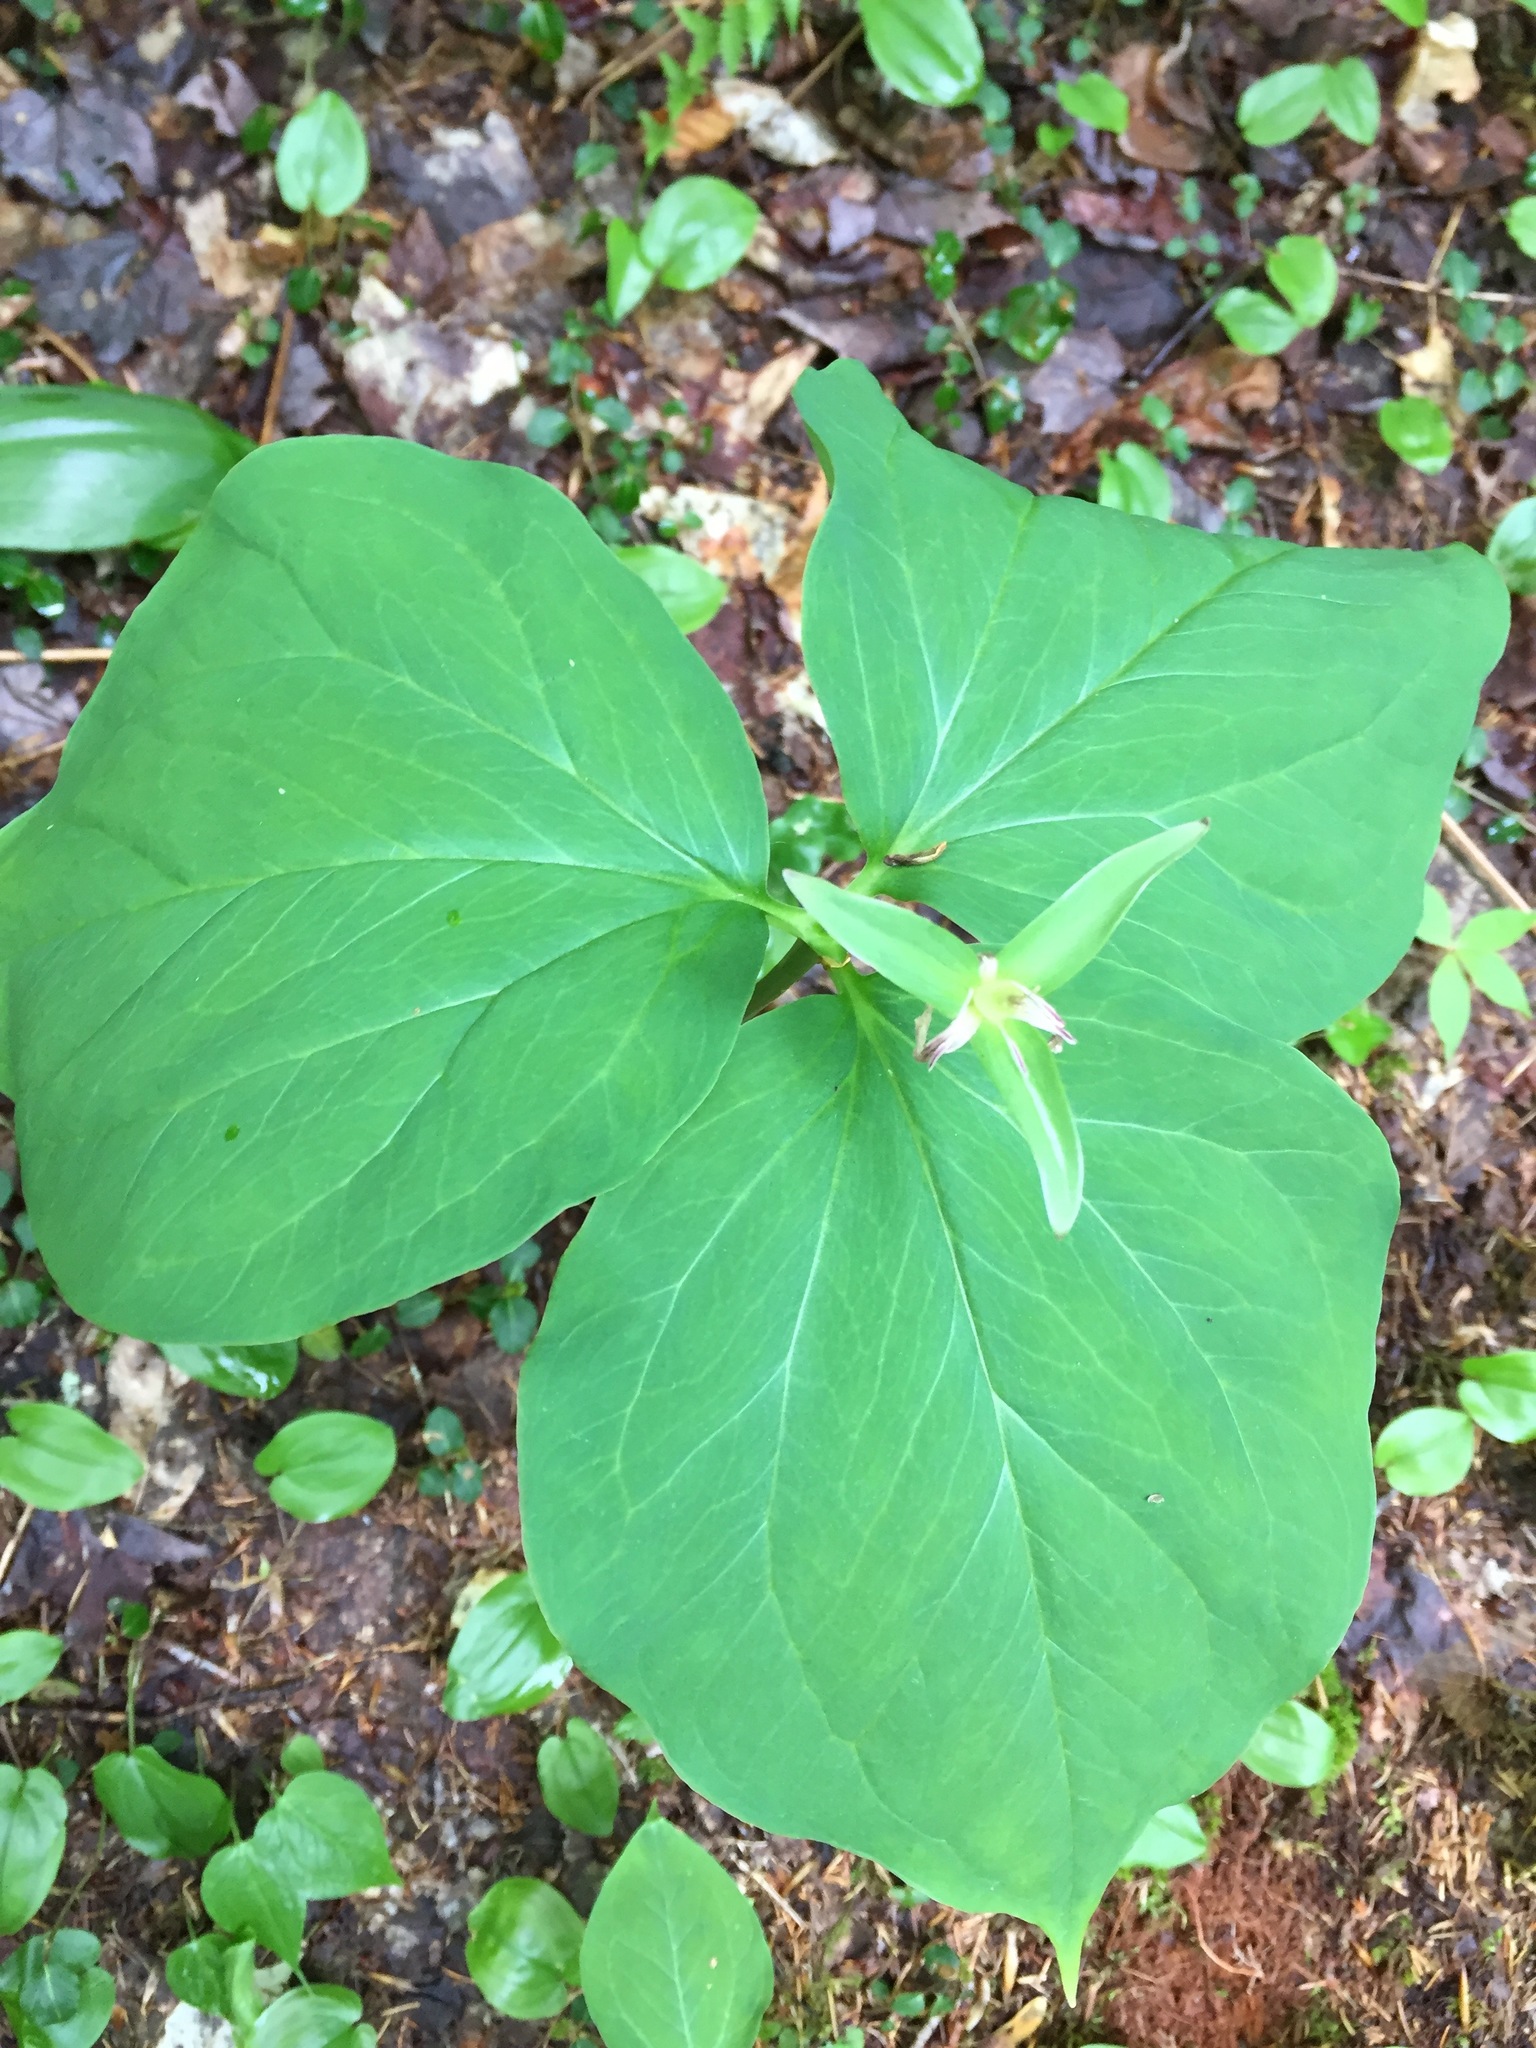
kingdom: Plantae
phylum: Tracheophyta
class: Liliopsida
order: Liliales
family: Melanthiaceae
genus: Trillium
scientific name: Trillium undulatum
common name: Paint trillium
